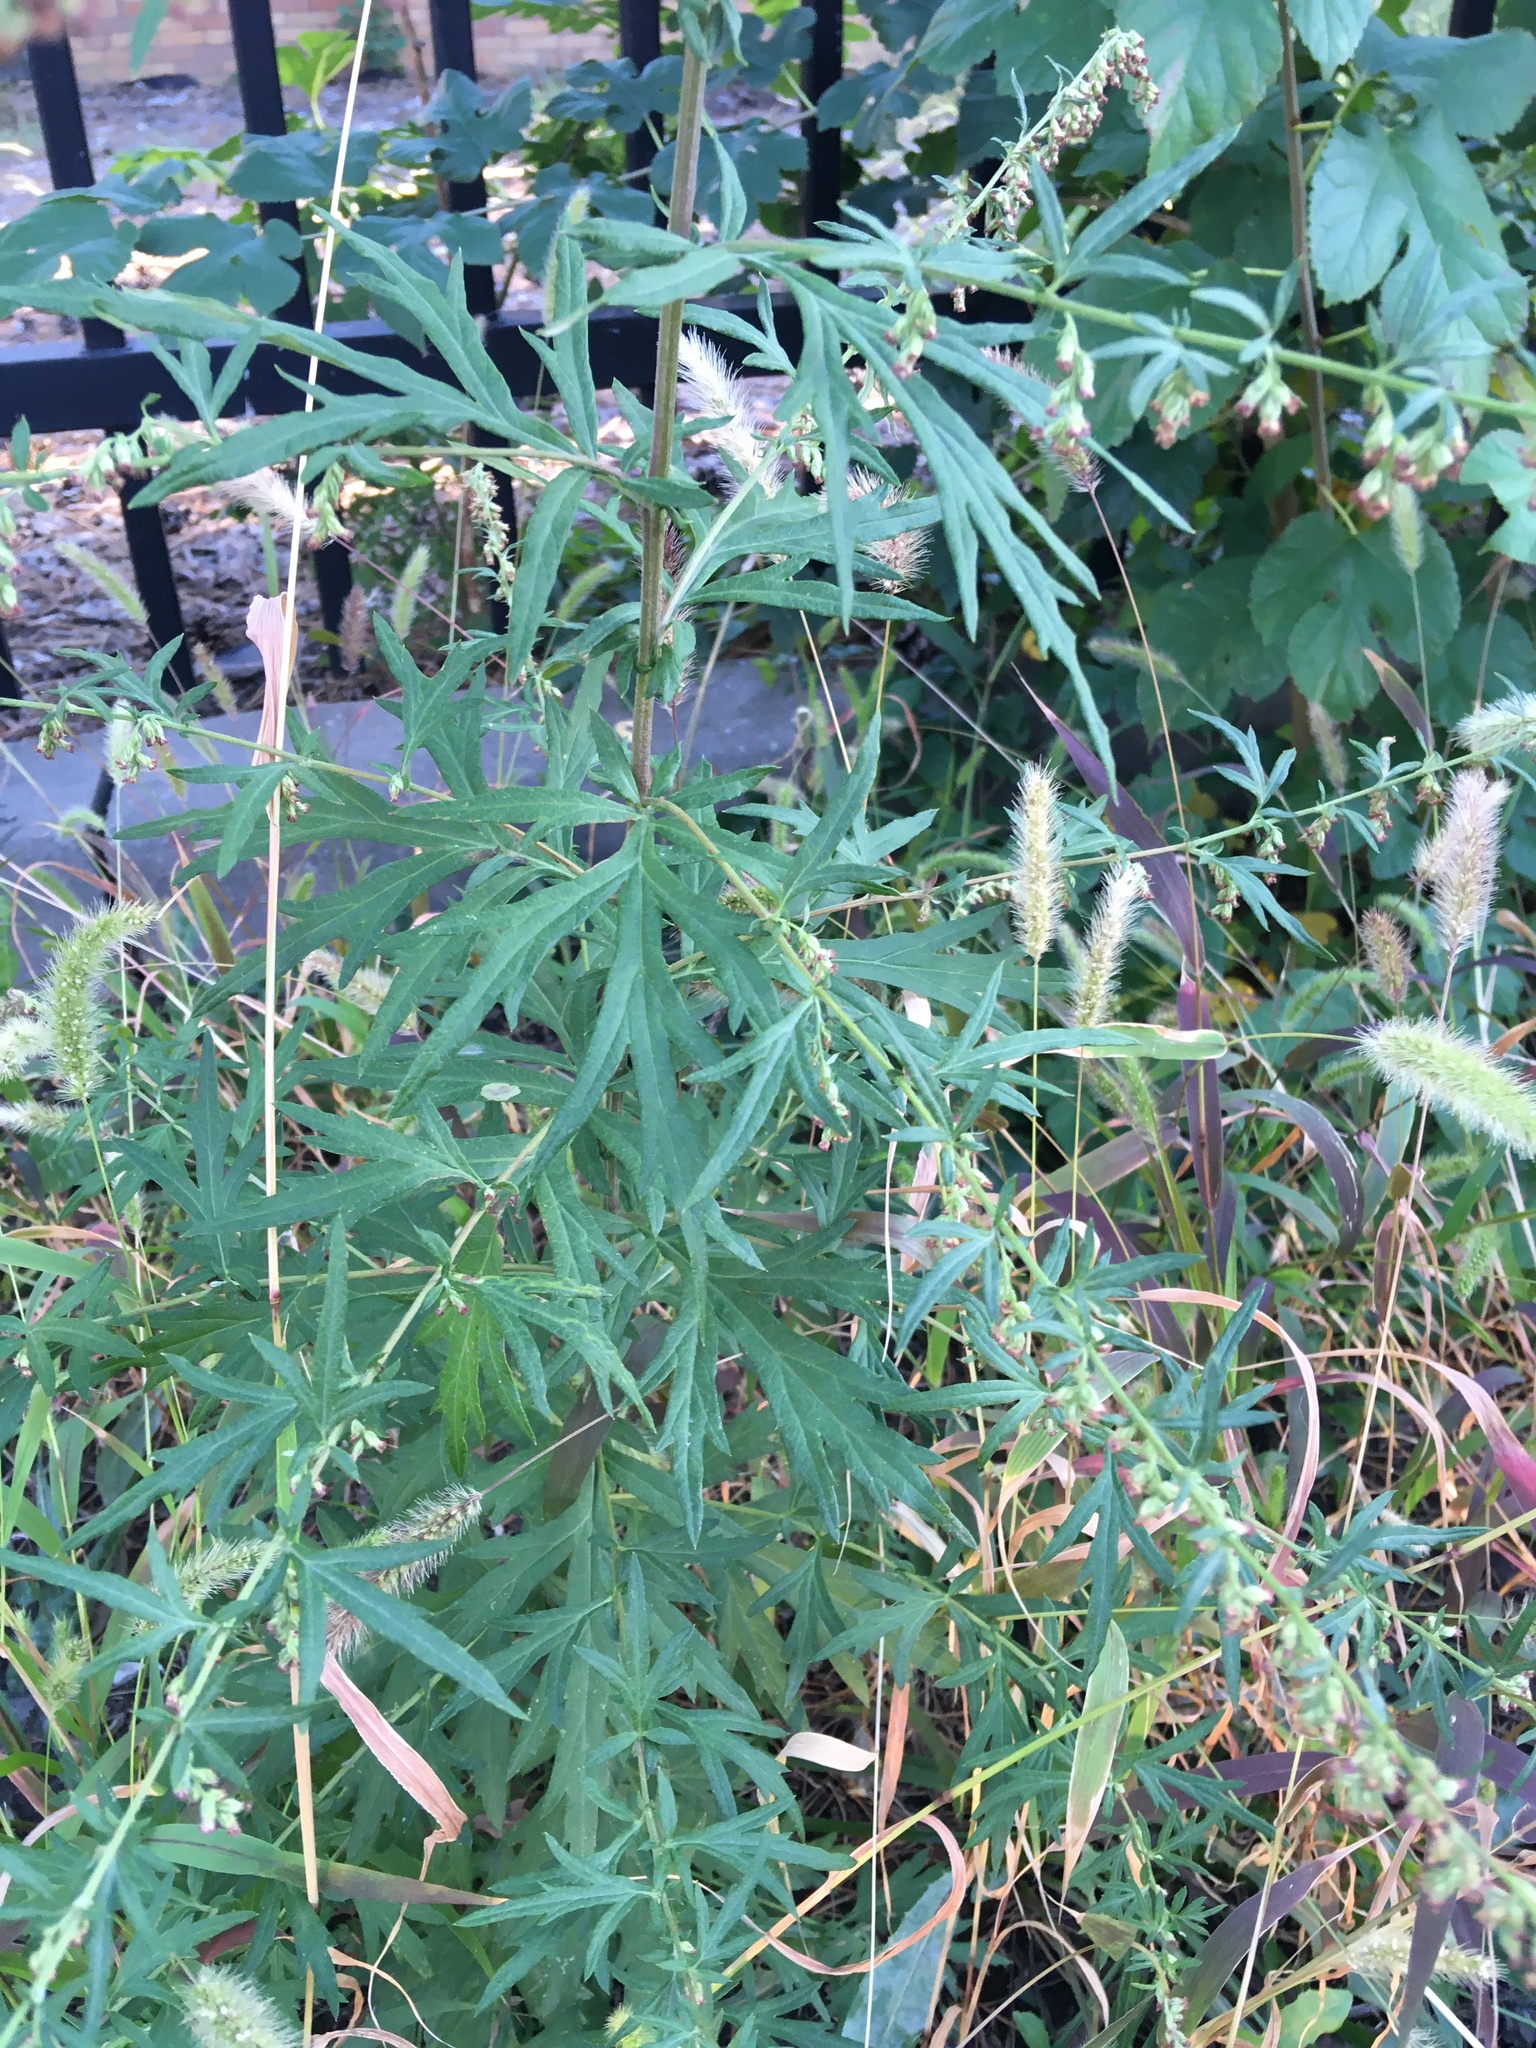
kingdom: Plantae
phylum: Tracheophyta
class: Magnoliopsida
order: Asterales
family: Asteraceae
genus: Artemisia
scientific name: Artemisia vulgaris
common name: Mugwort
